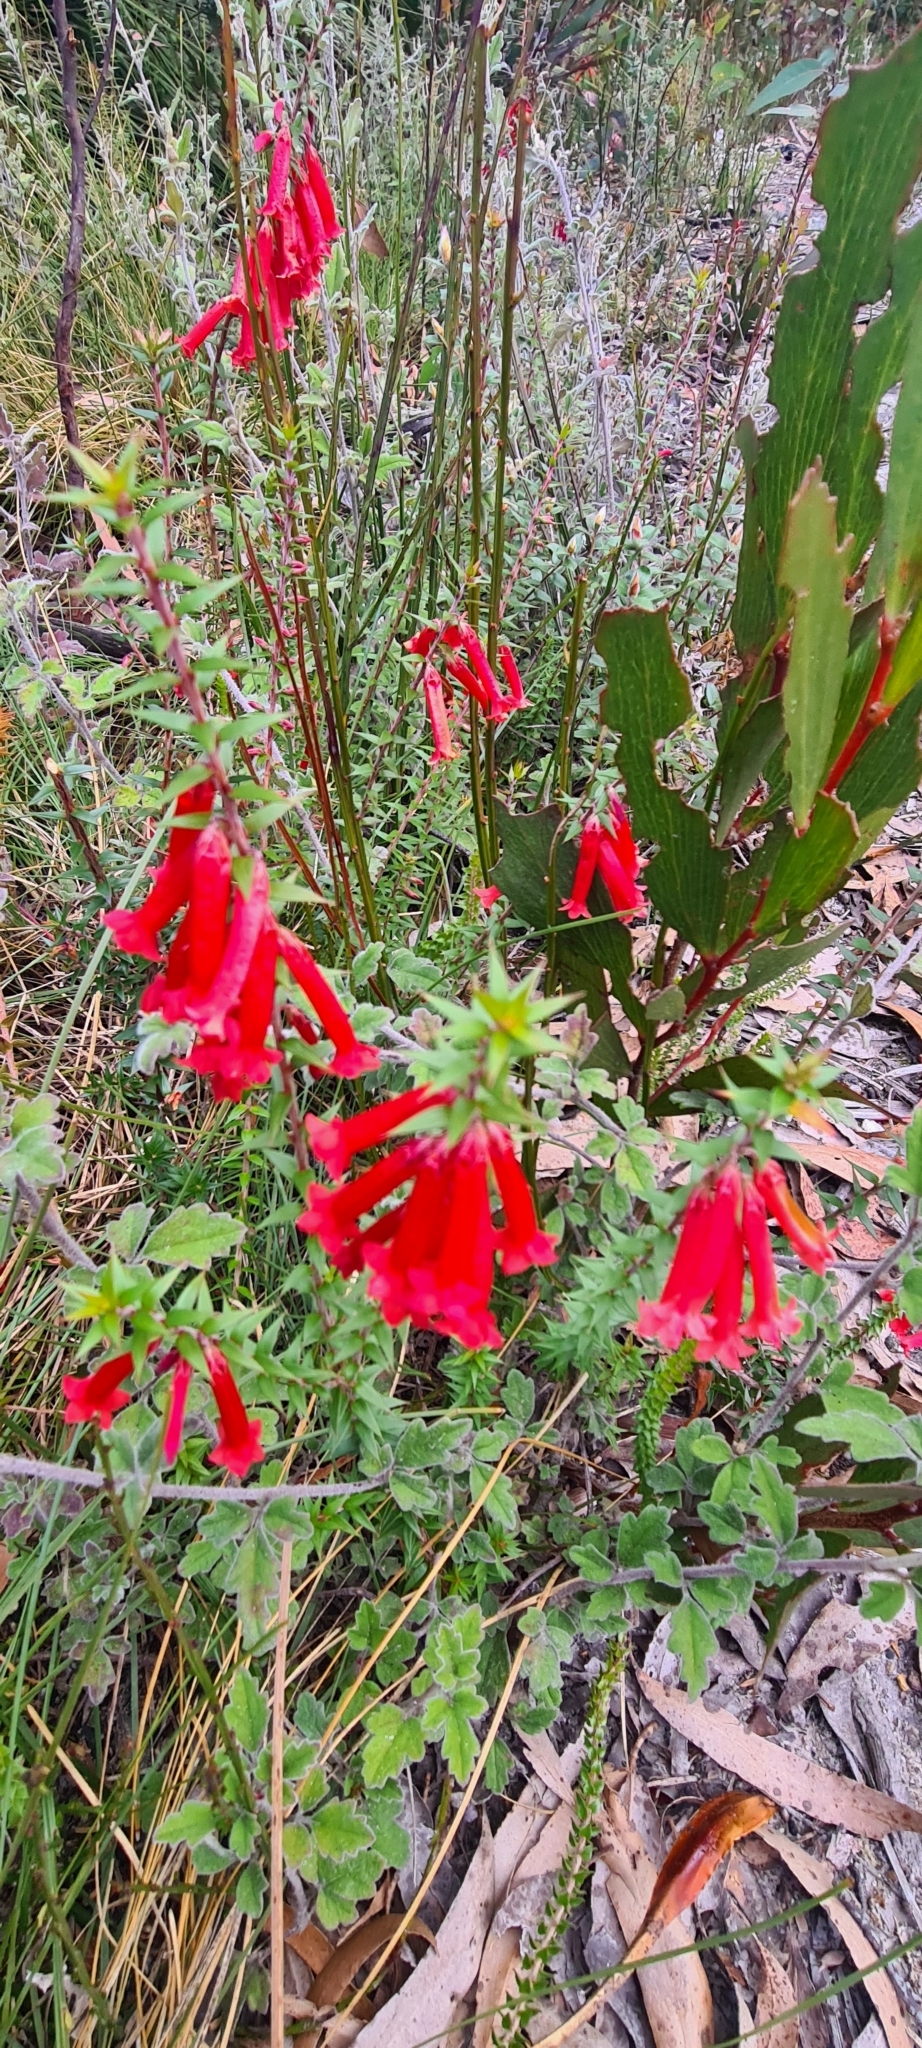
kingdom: Plantae
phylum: Tracheophyta
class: Magnoliopsida
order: Ericales
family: Ericaceae
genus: Epacris
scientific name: Epacris impressa
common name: Common-heath
